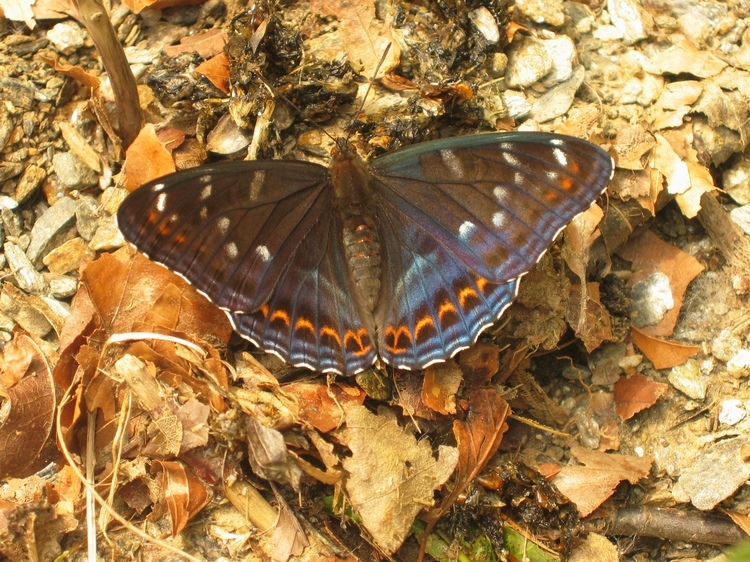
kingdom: Animalia
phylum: Arthropoda
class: Insecta
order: Lepidoptera
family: Nymphalidae
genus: Limenitis
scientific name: Limenitis populi
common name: Poplar admiral
